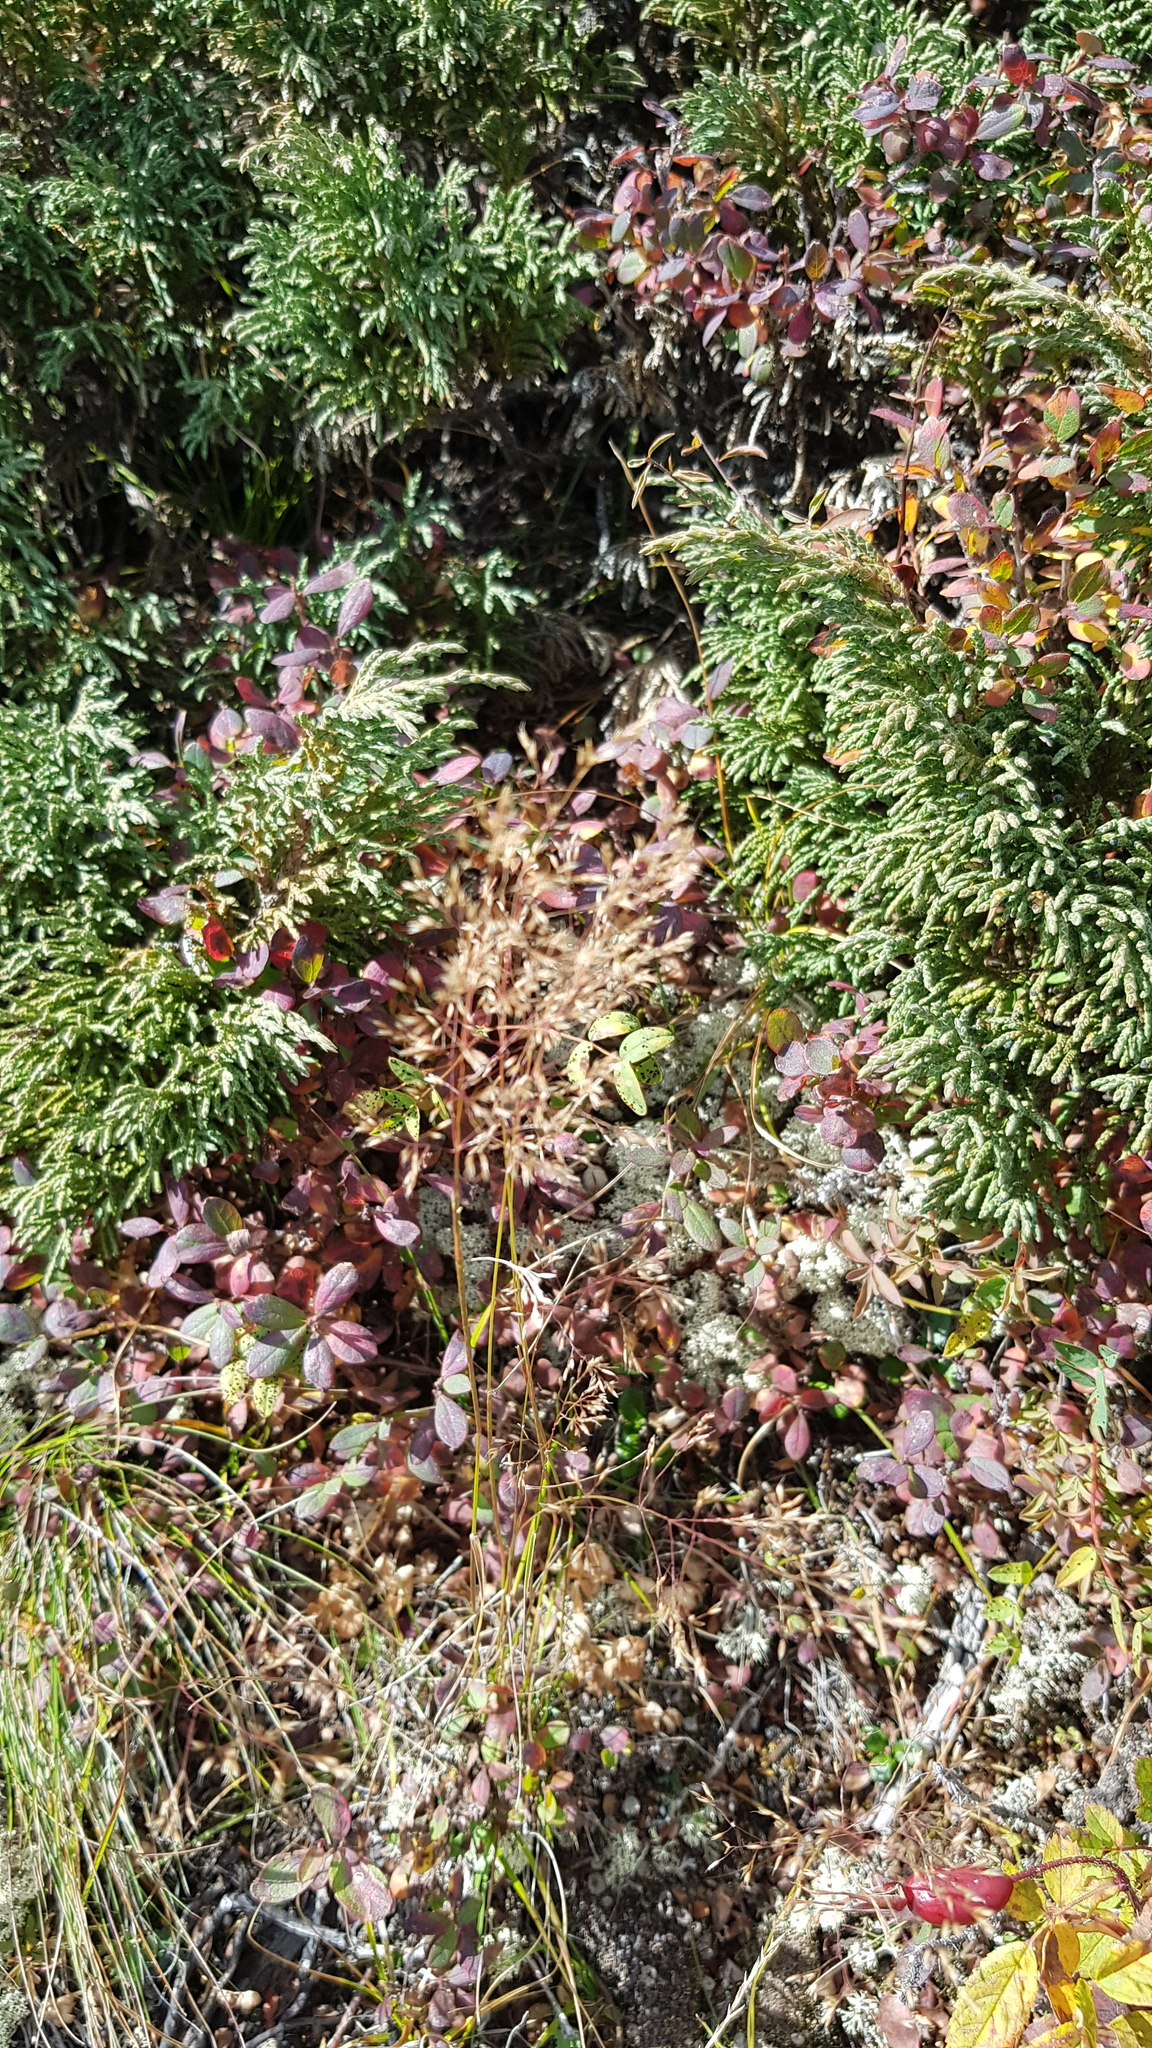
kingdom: Plantae
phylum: Tracheophyta
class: Pinopsida
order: Pinales
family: Cupressaceae
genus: Juniperus
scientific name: Juniperus pseudosabina
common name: Turkestan juniper
